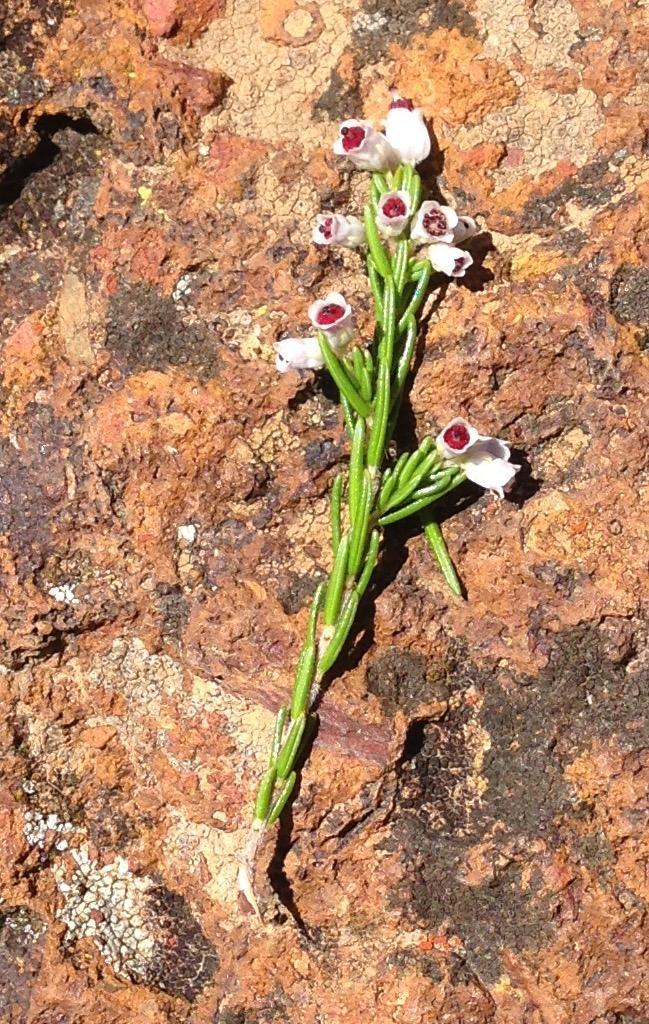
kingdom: Plantae
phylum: Tracheophyta
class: Magnoliopsida
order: Ericales
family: Ericaceae
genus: Erica
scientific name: Erica trivialis
